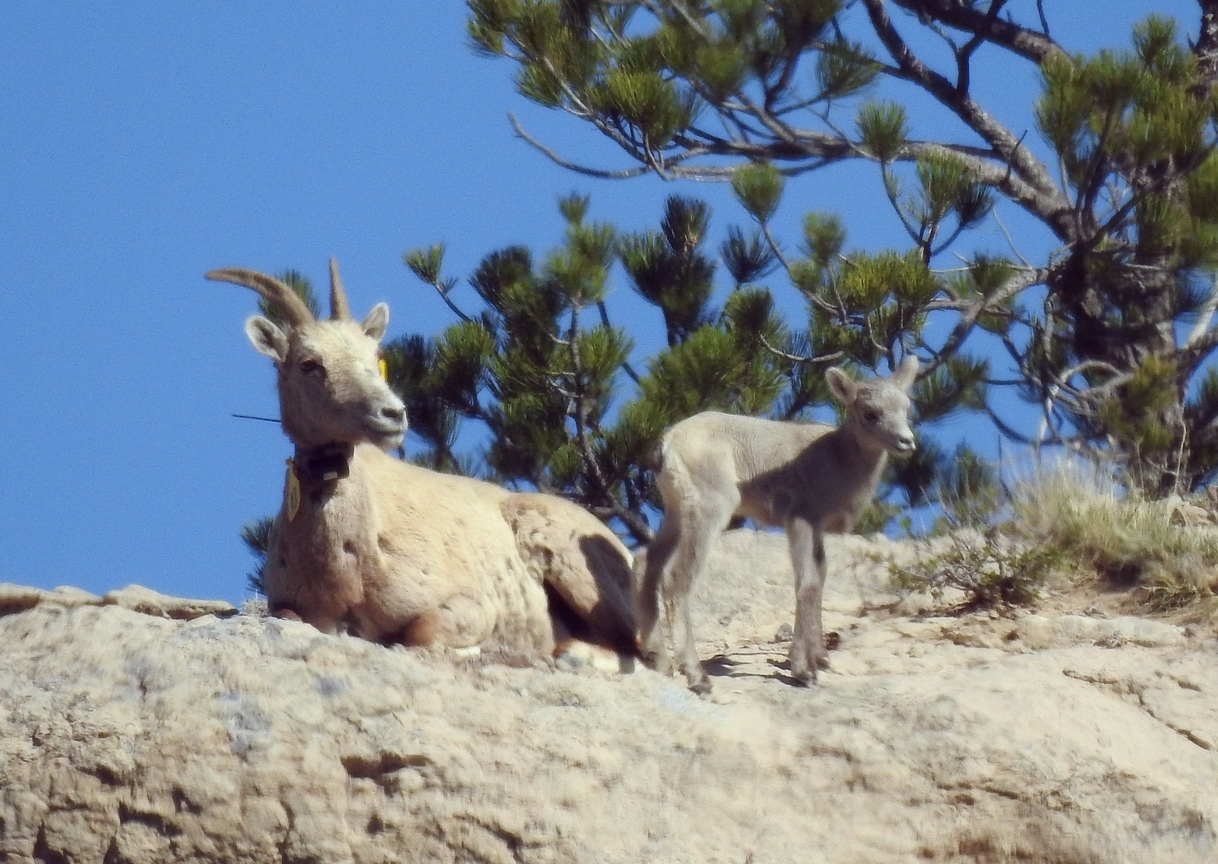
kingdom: Animalia
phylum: Chordata
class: Mammalia
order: Artiodactyla
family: Bovidae
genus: Ovis
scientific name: Ovis canadensis
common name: Bighorn sheep
